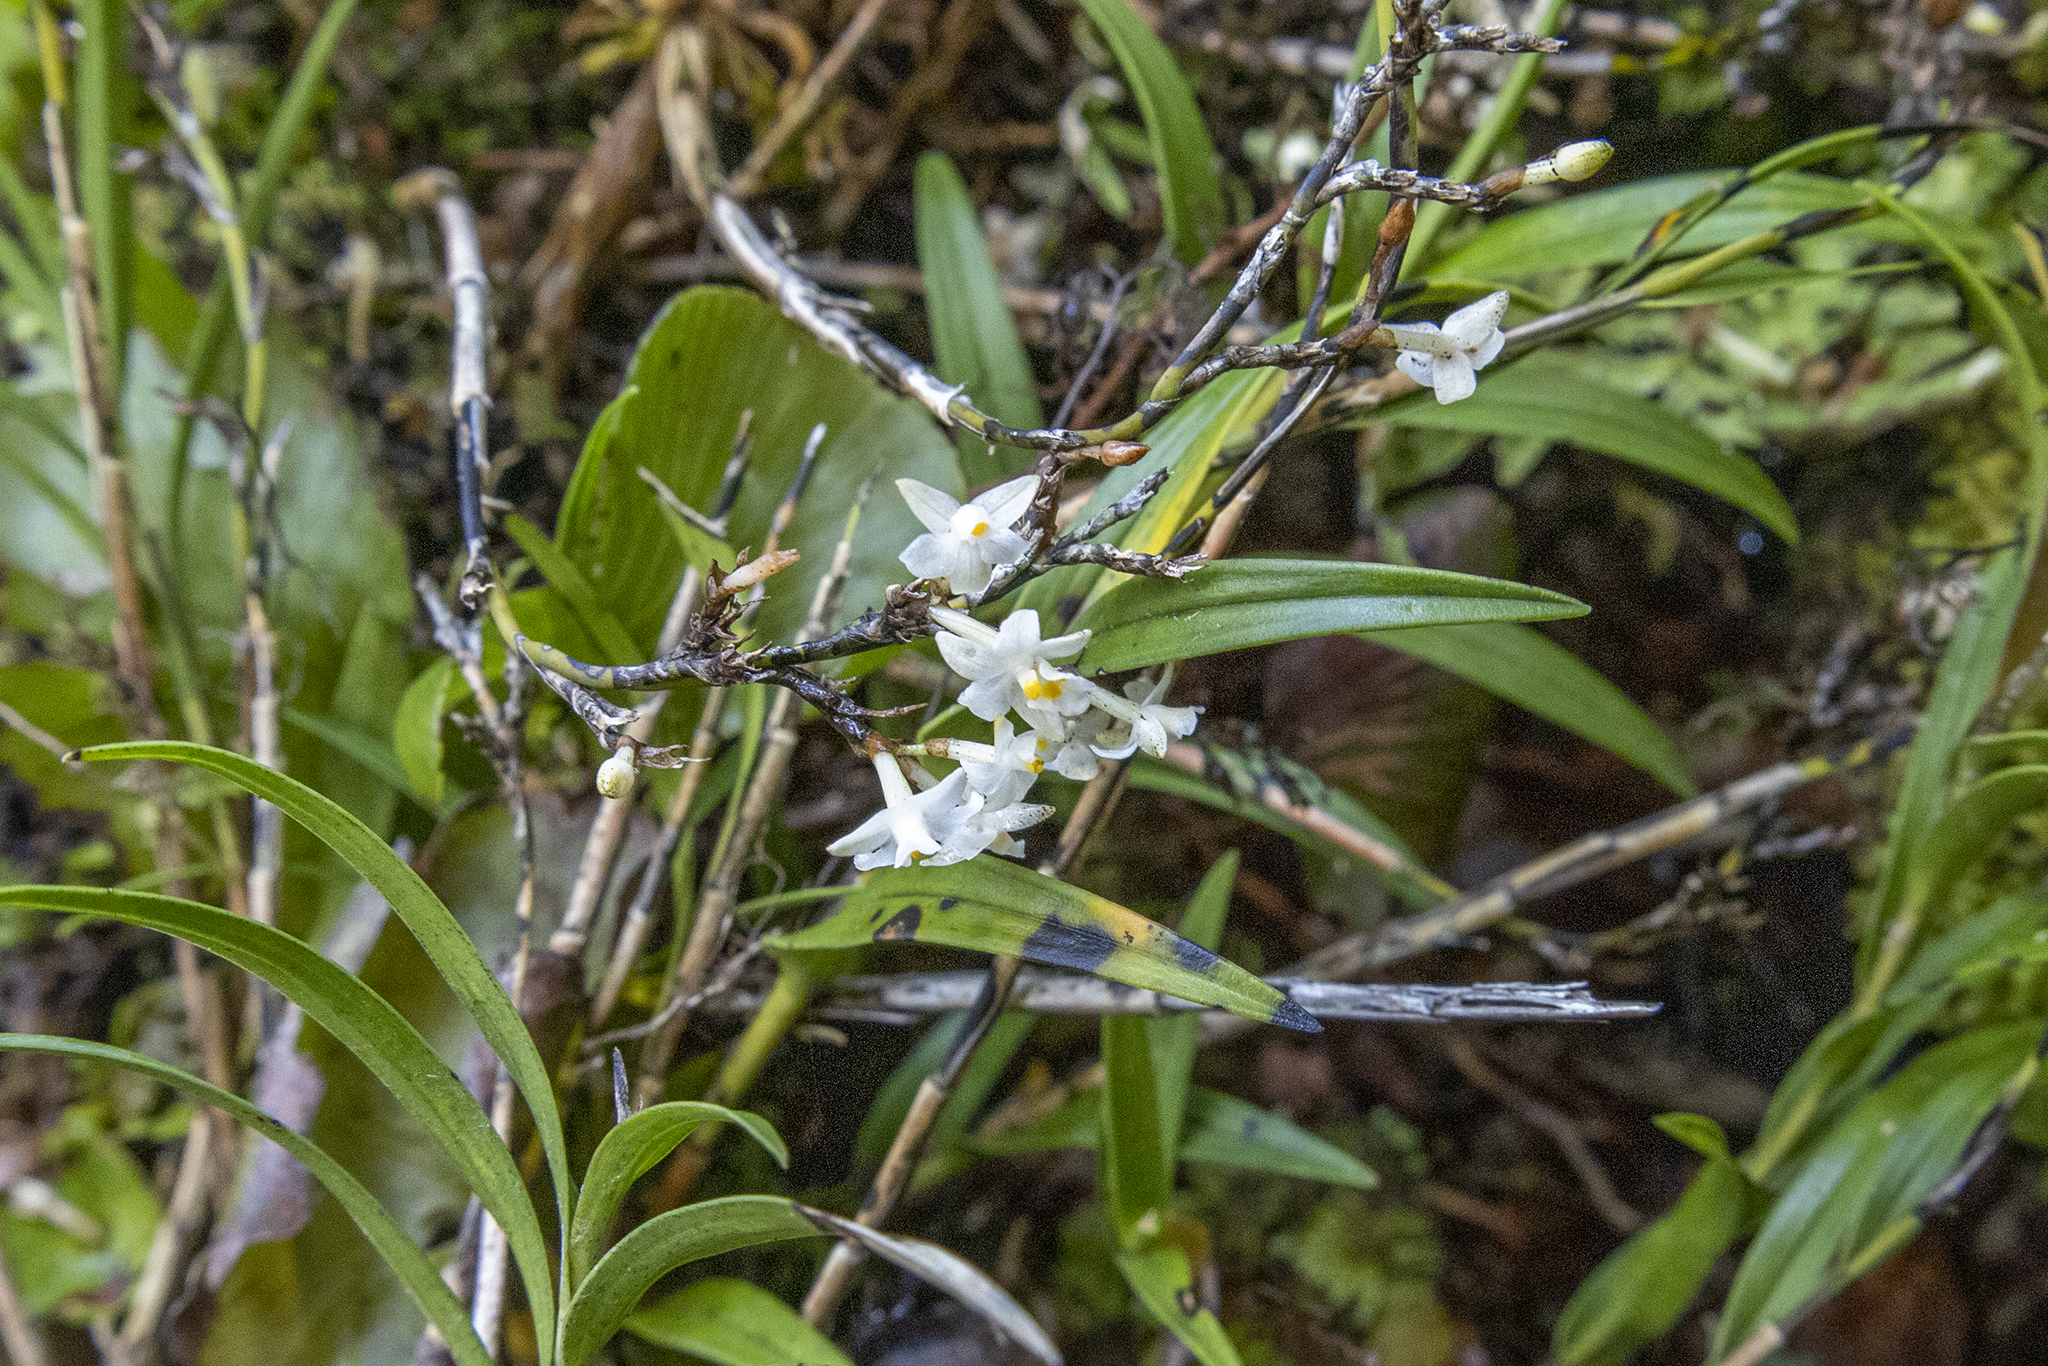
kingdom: Plantae
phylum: Tracheophyta
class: Liliopsida
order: Asparagales
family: Orchidaceae
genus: Earina
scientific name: Earina autumnalis
